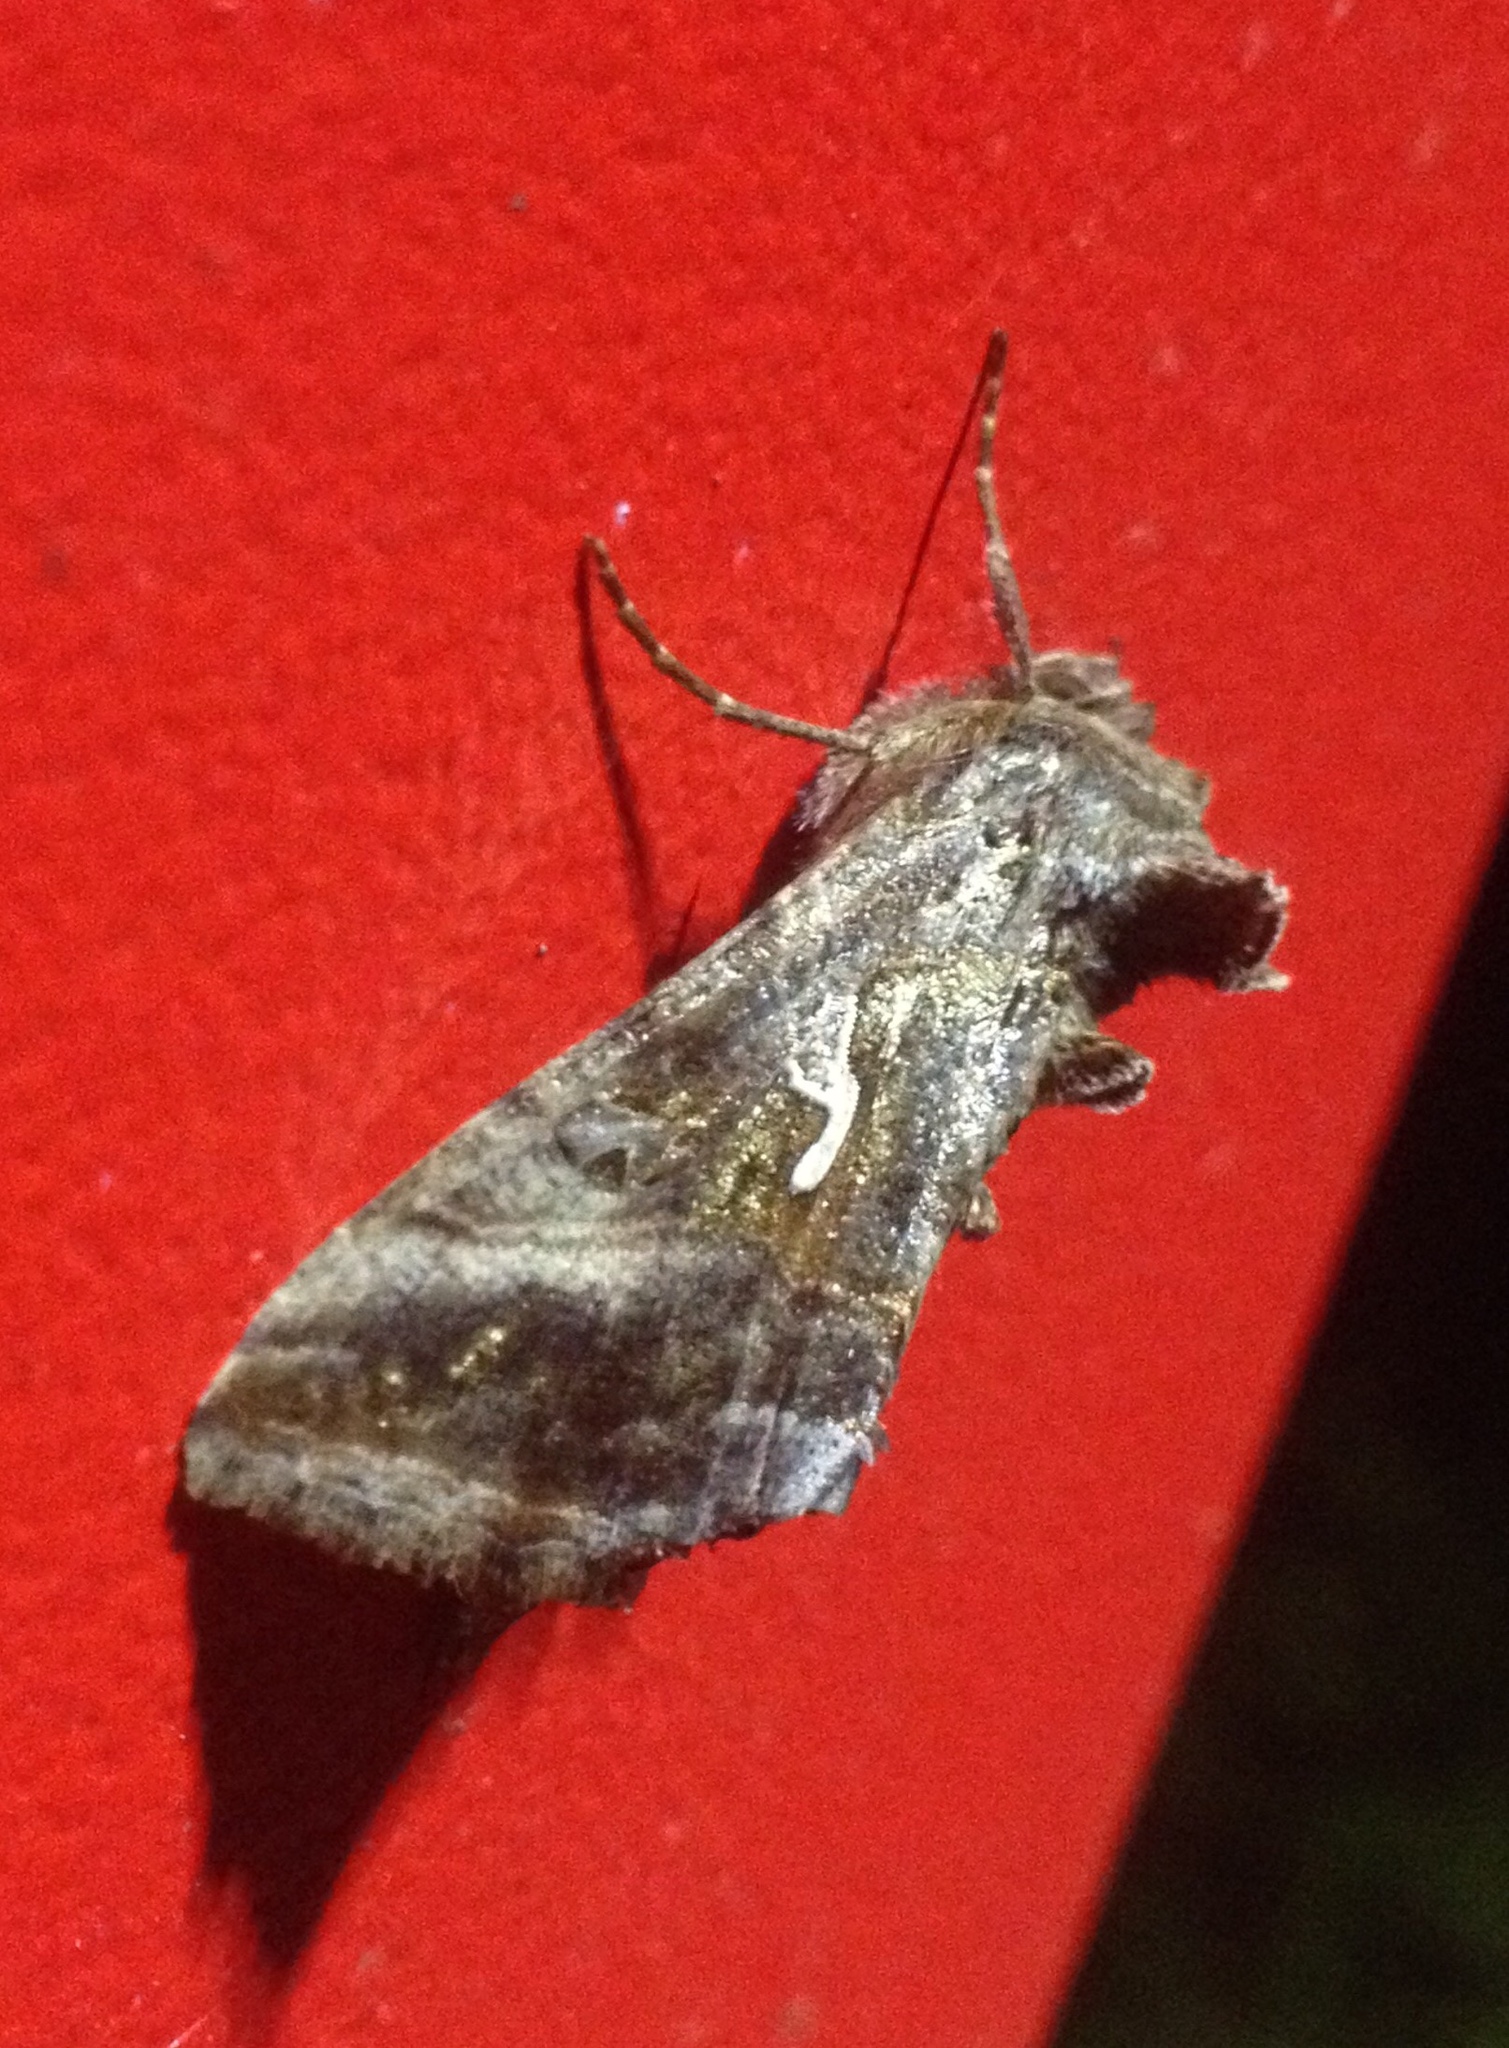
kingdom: Animalia
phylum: Arthropoda
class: Insecta
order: Lepidoptera
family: Noctuidae
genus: Autographa
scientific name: Autographa gamma
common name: Silver y
